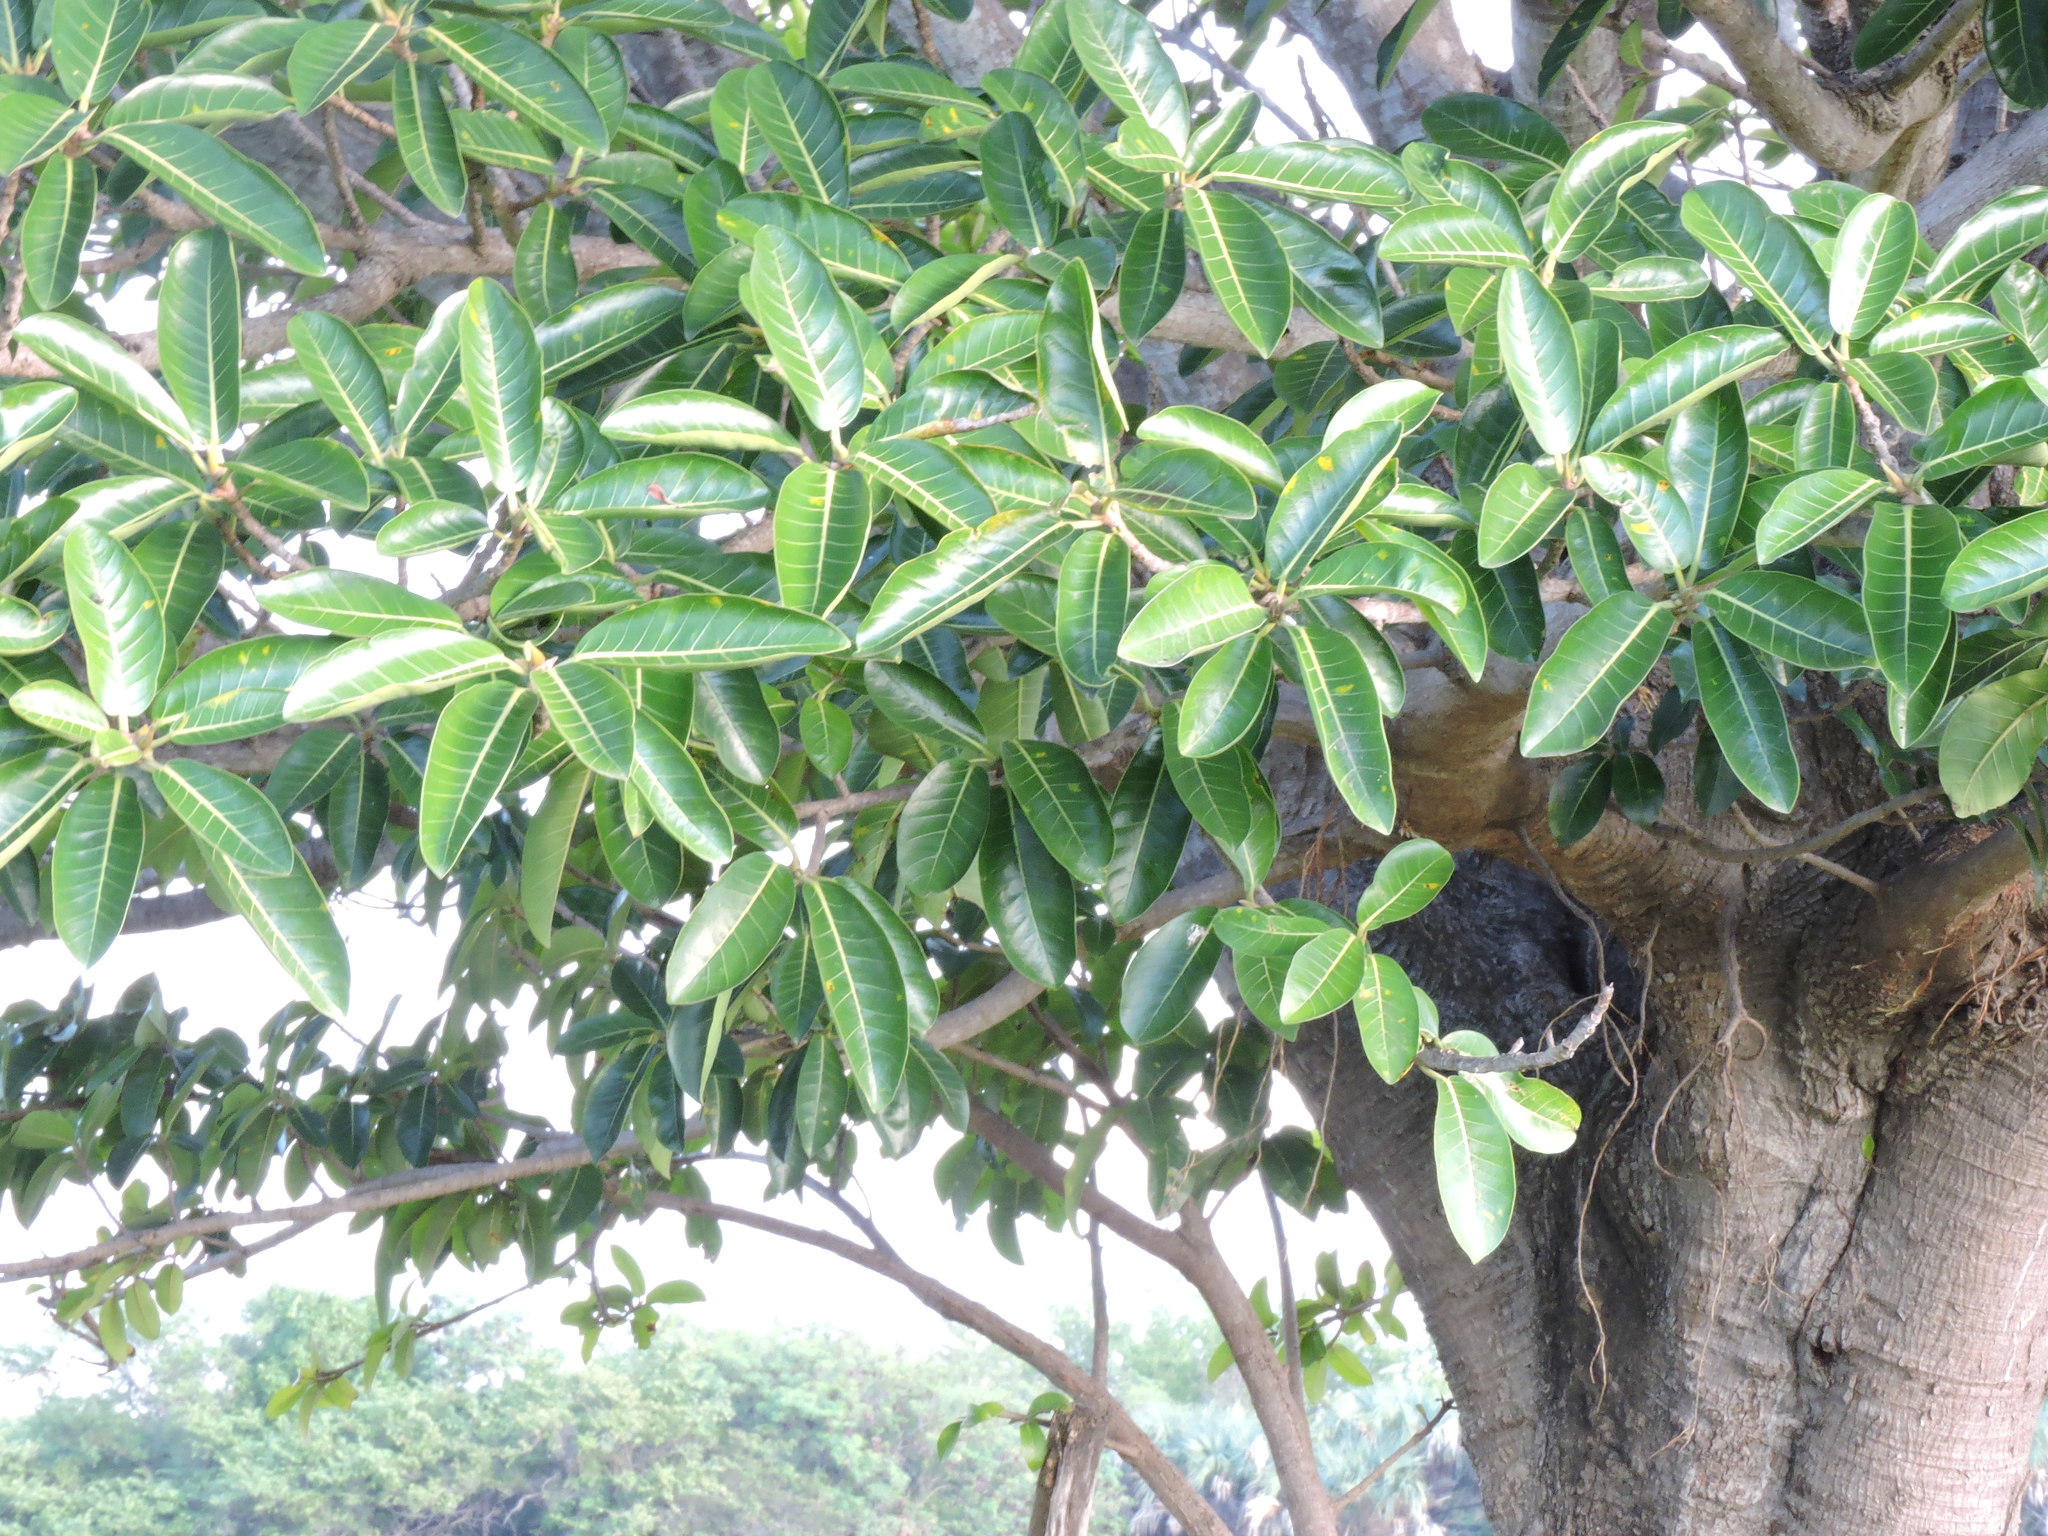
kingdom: Plantae
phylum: Tracheophyta
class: Magnoliopsida
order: Rosales
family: Moraceae
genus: Ficus
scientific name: Ficus crocata
